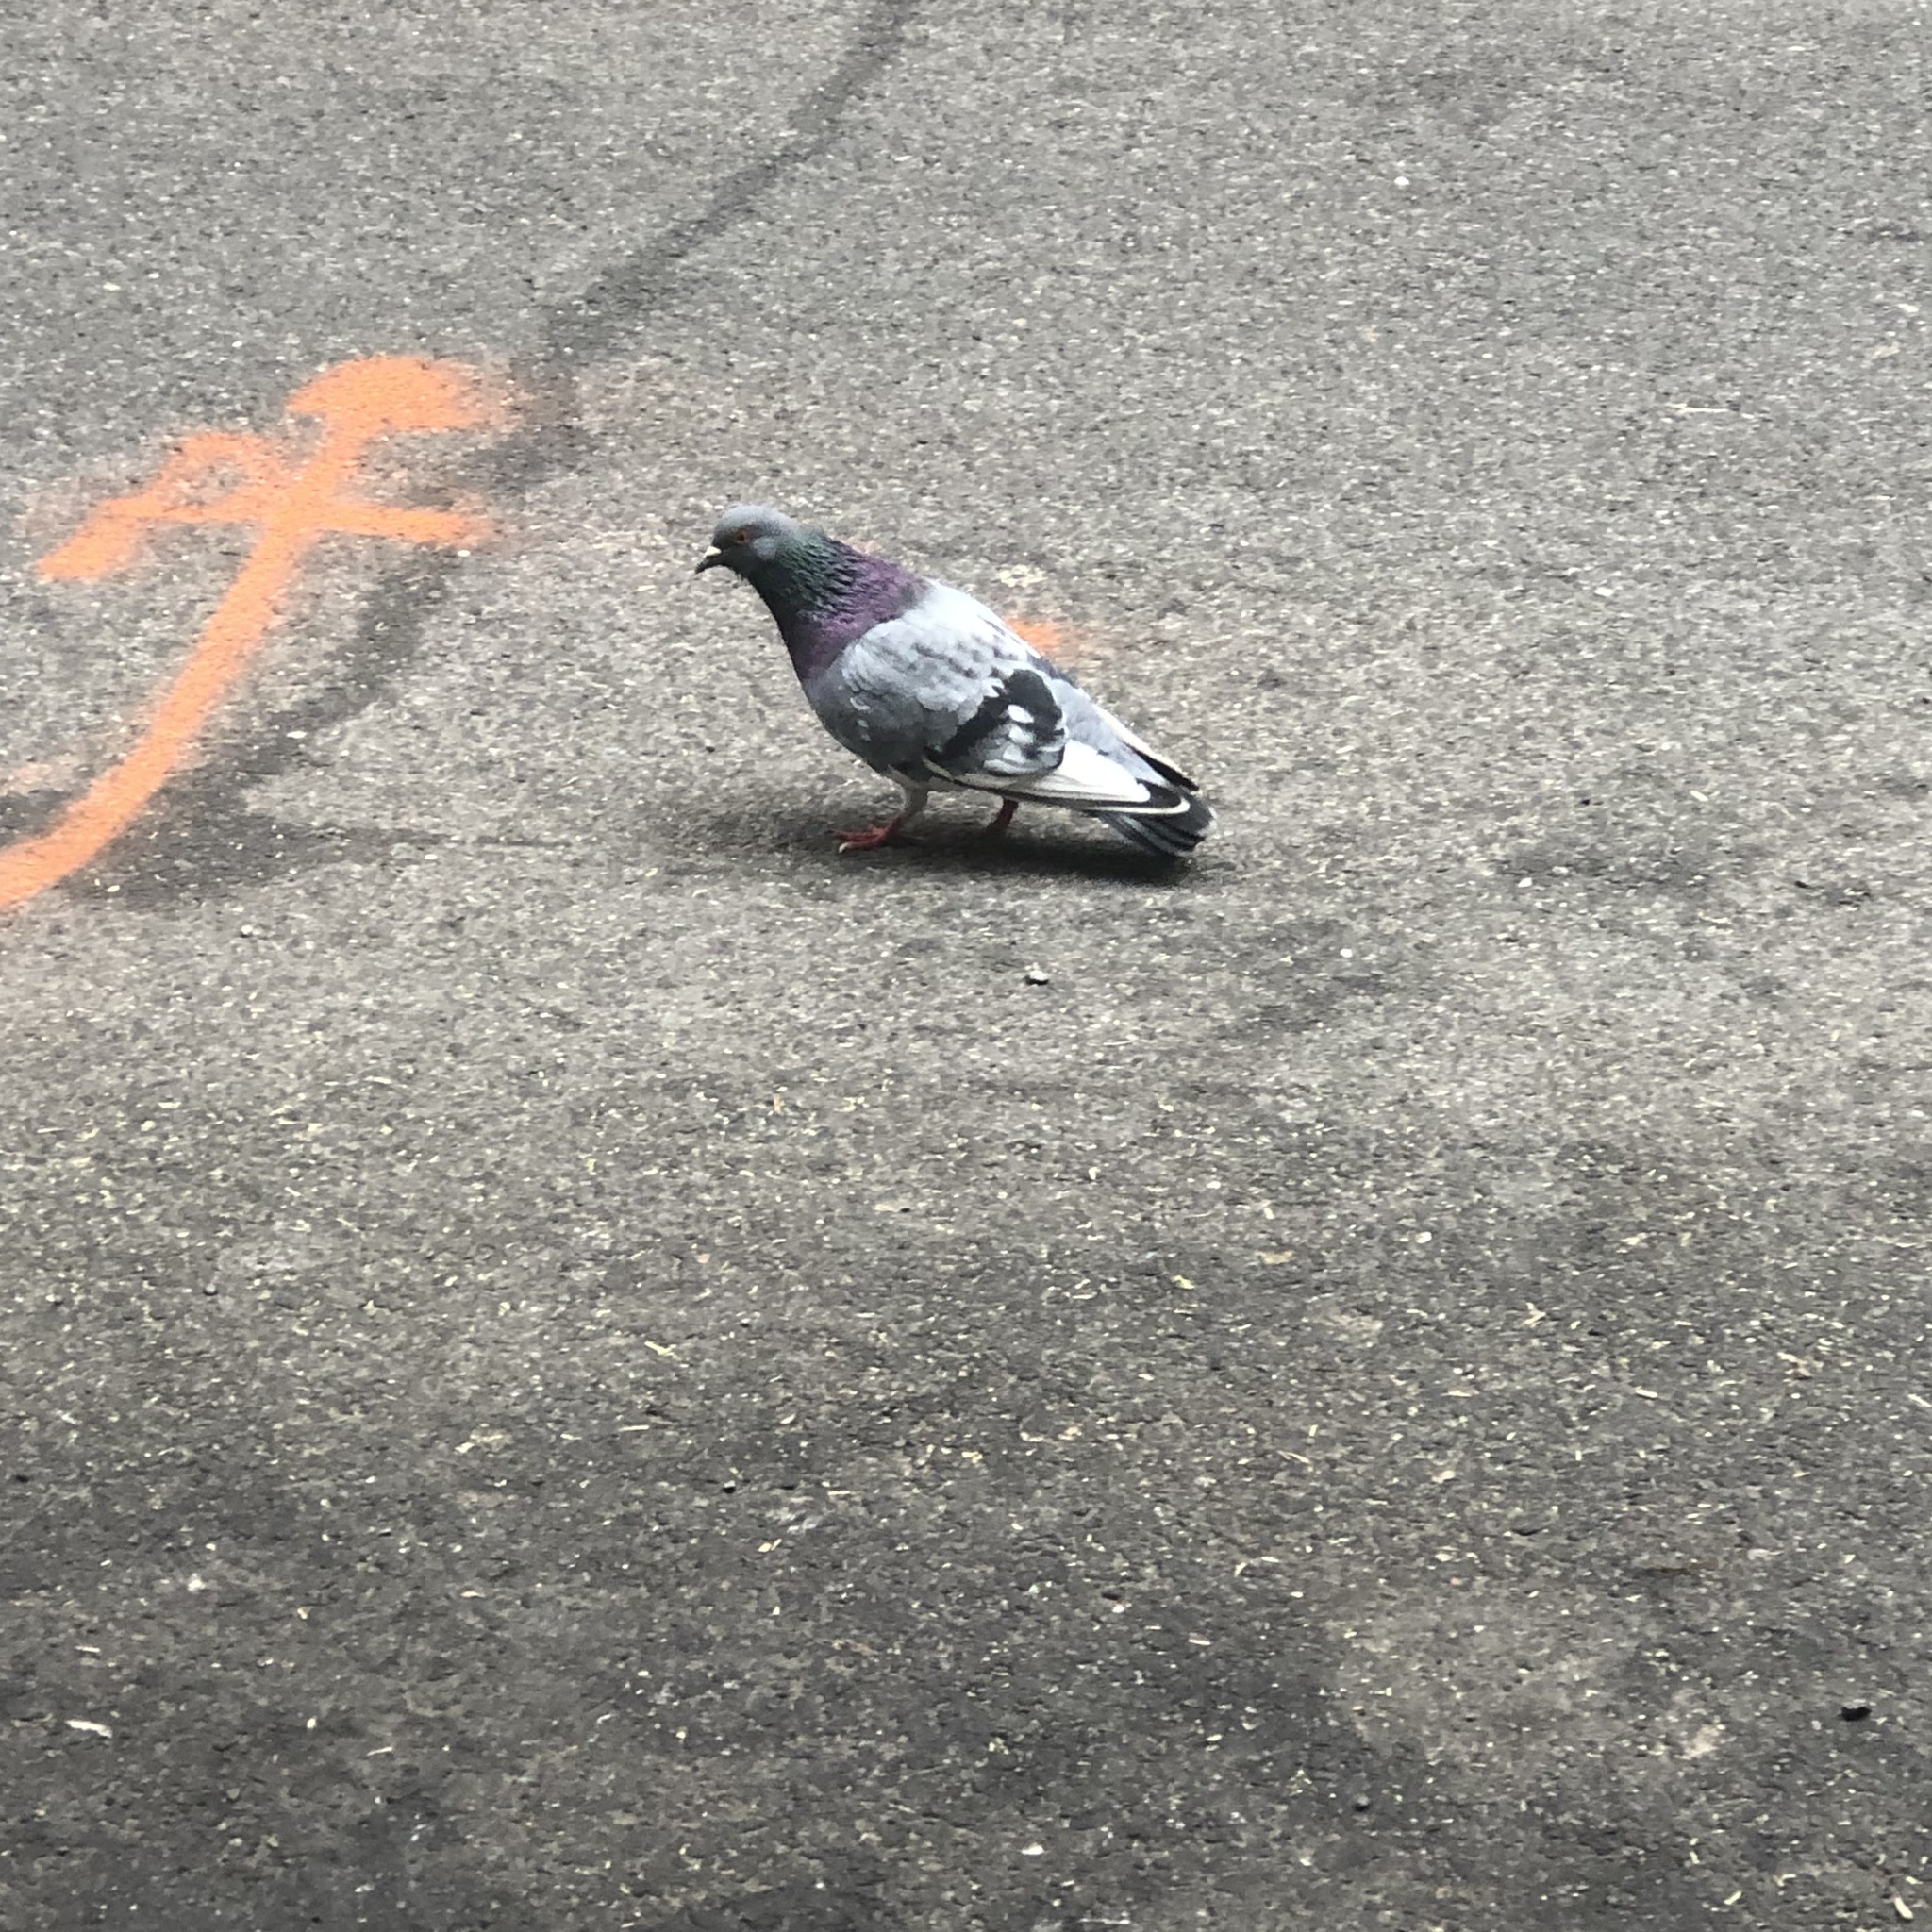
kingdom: Animalia
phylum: Chordata
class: Aves
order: Columbiformes
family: Columbidae
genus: Columba
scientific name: Columba livia
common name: Rock pigeon
